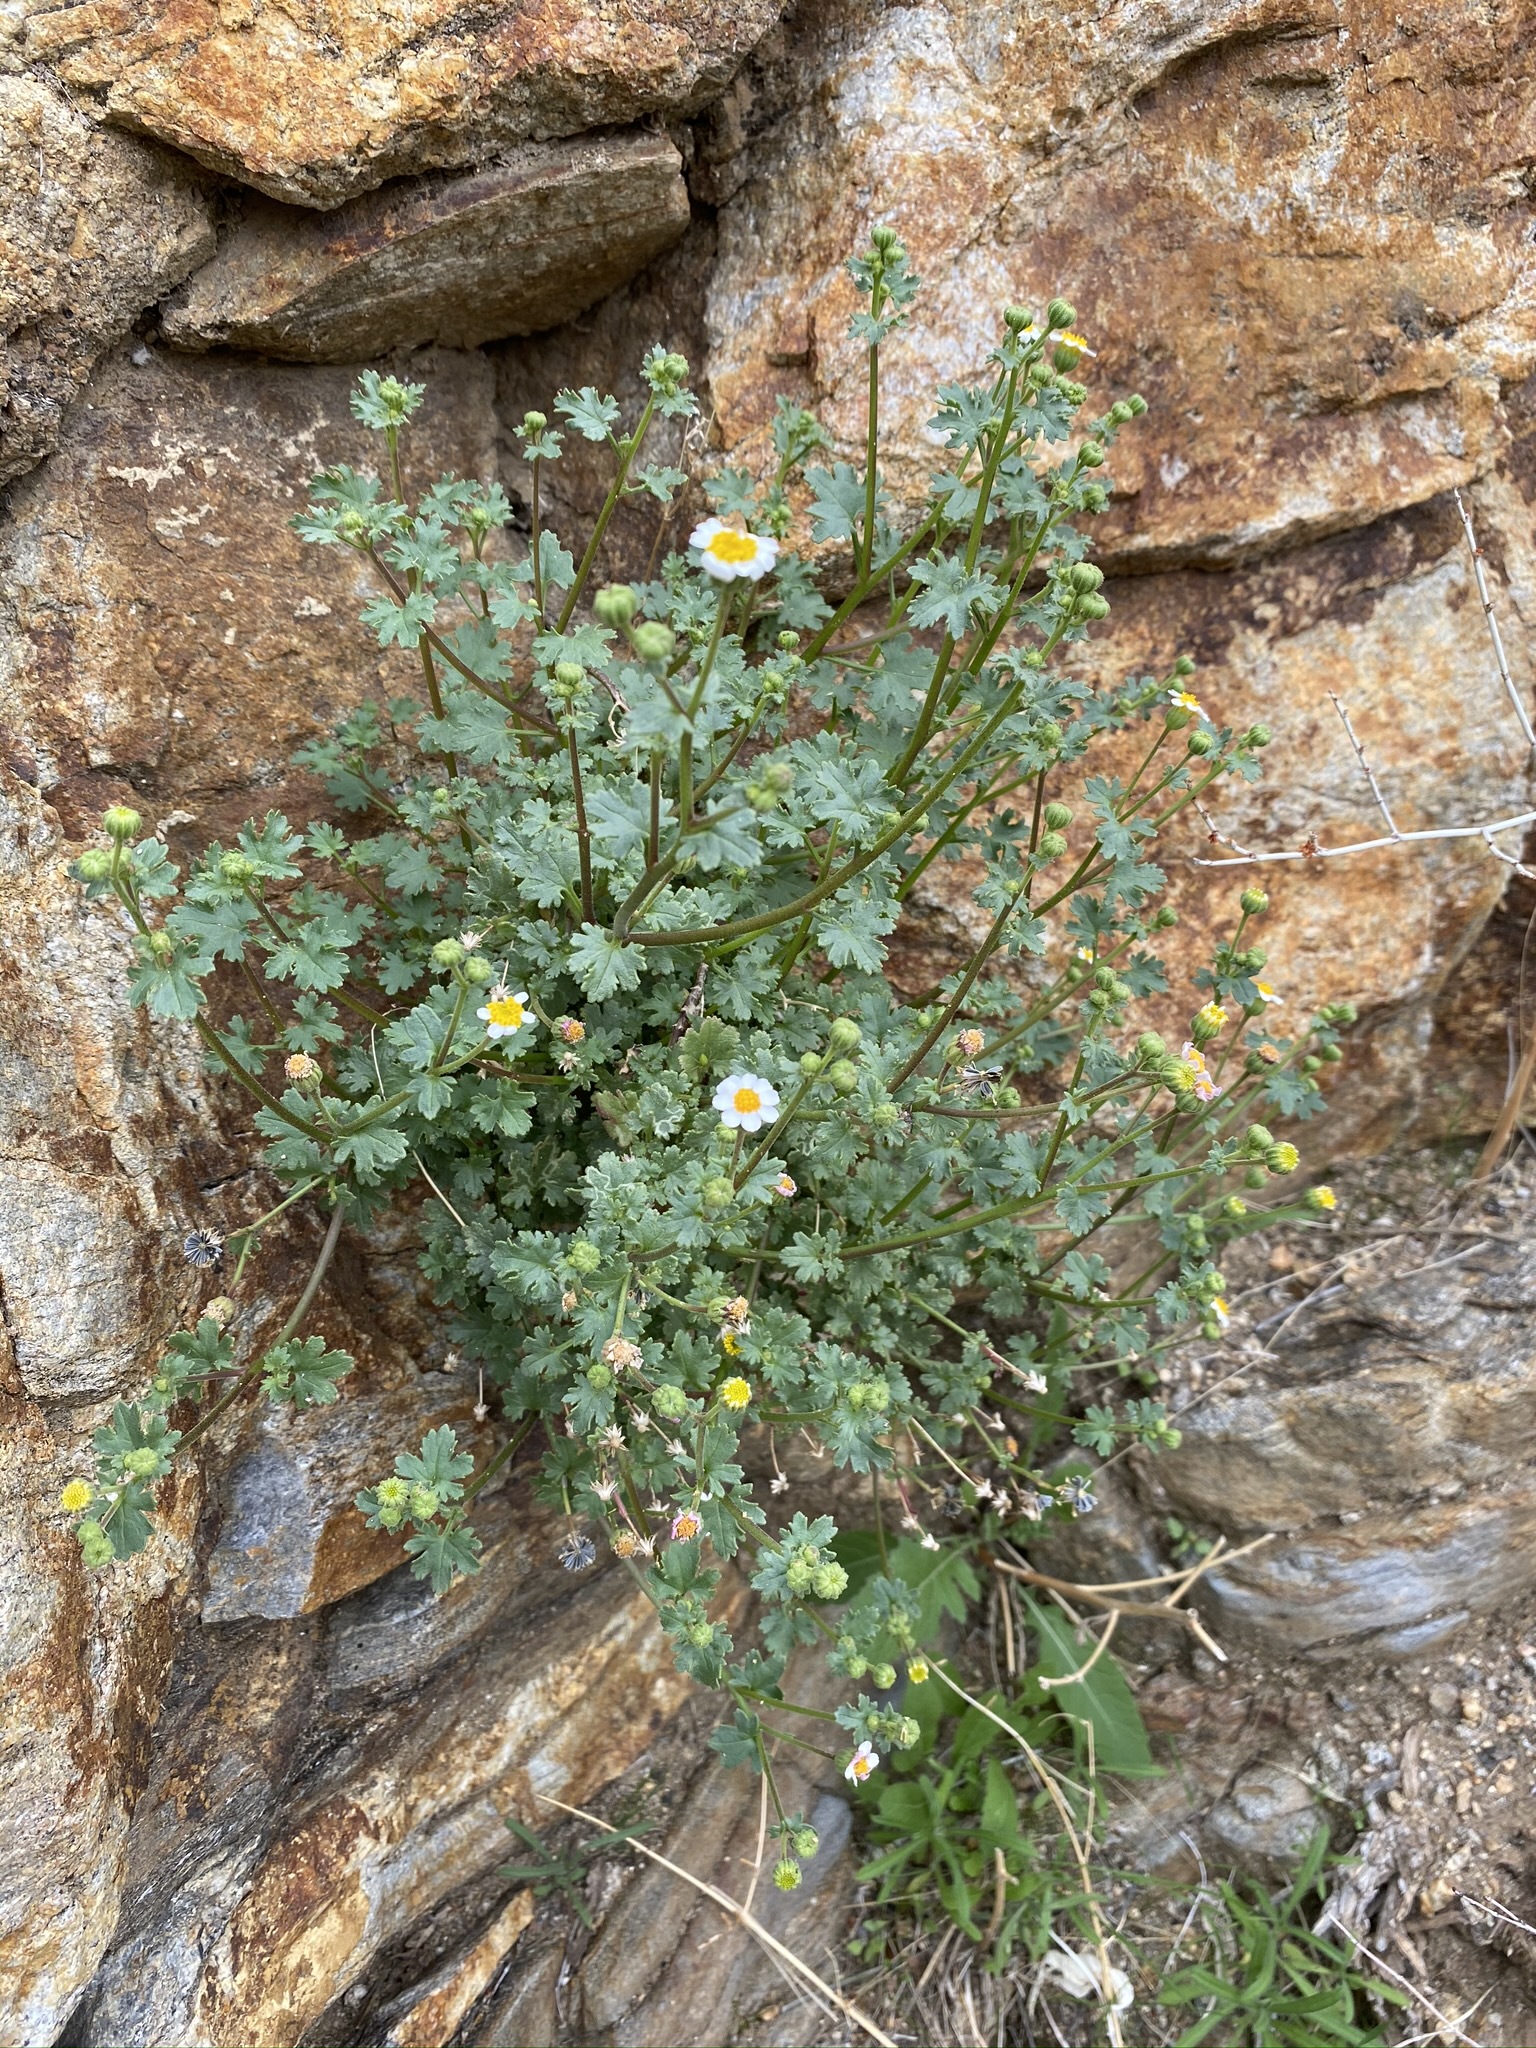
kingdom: Plantae
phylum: Tracheophyta
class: Magnoliopsida
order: Asterales
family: Asteraceae
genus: Laphamia
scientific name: Laphamia emoryi
